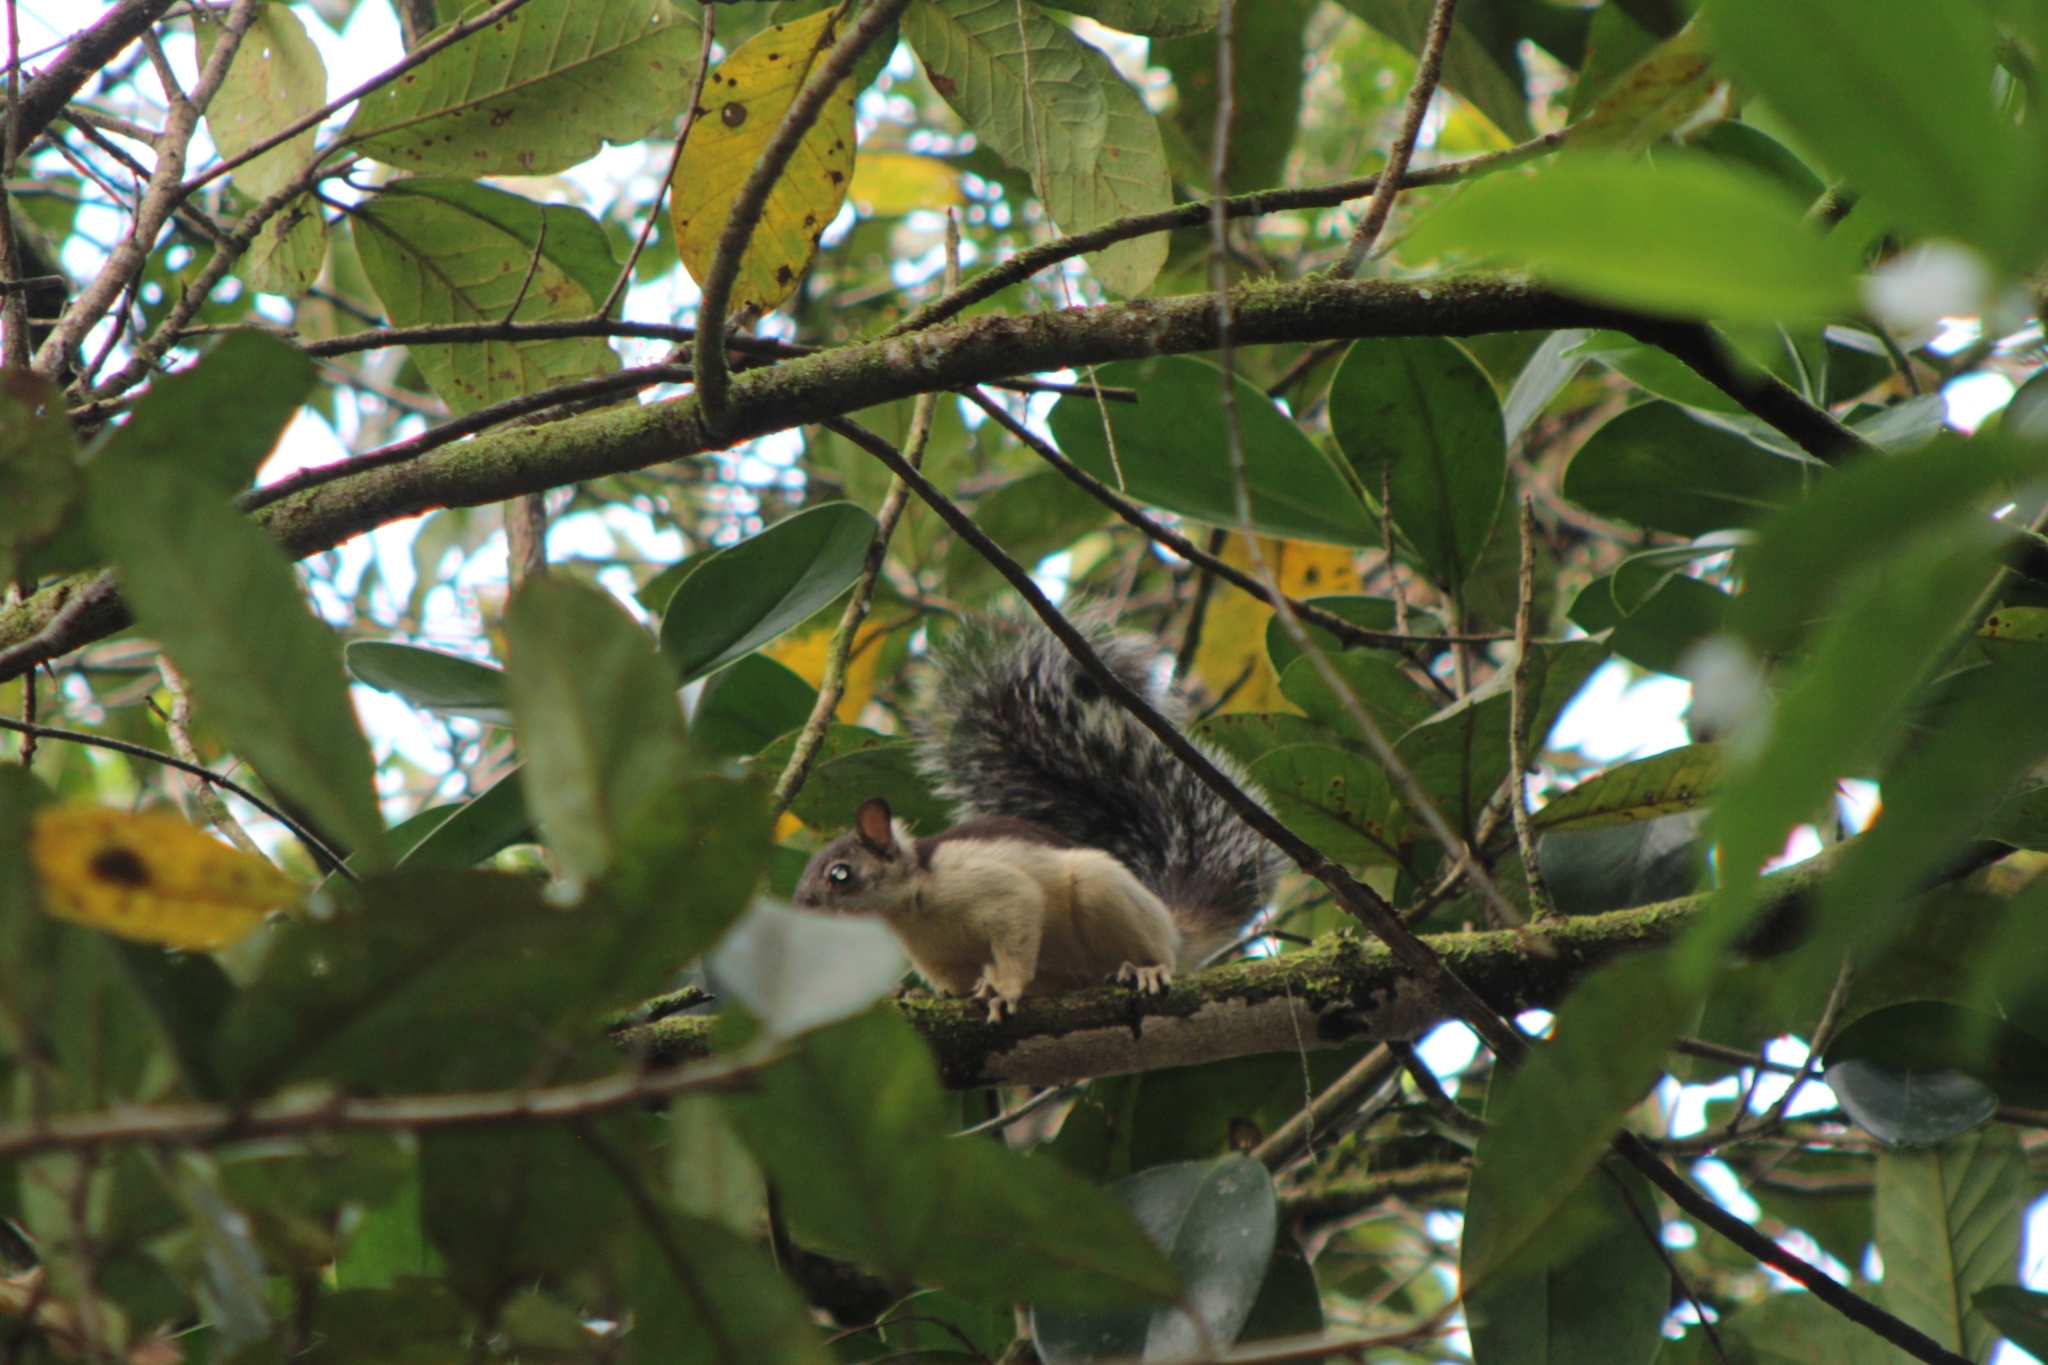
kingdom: Animalia
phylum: Chordata
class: Mammalia
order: Rodentia
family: Sciuridae
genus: Sciurus
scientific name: Sciurus variegatoides
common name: Variegated squirrel
